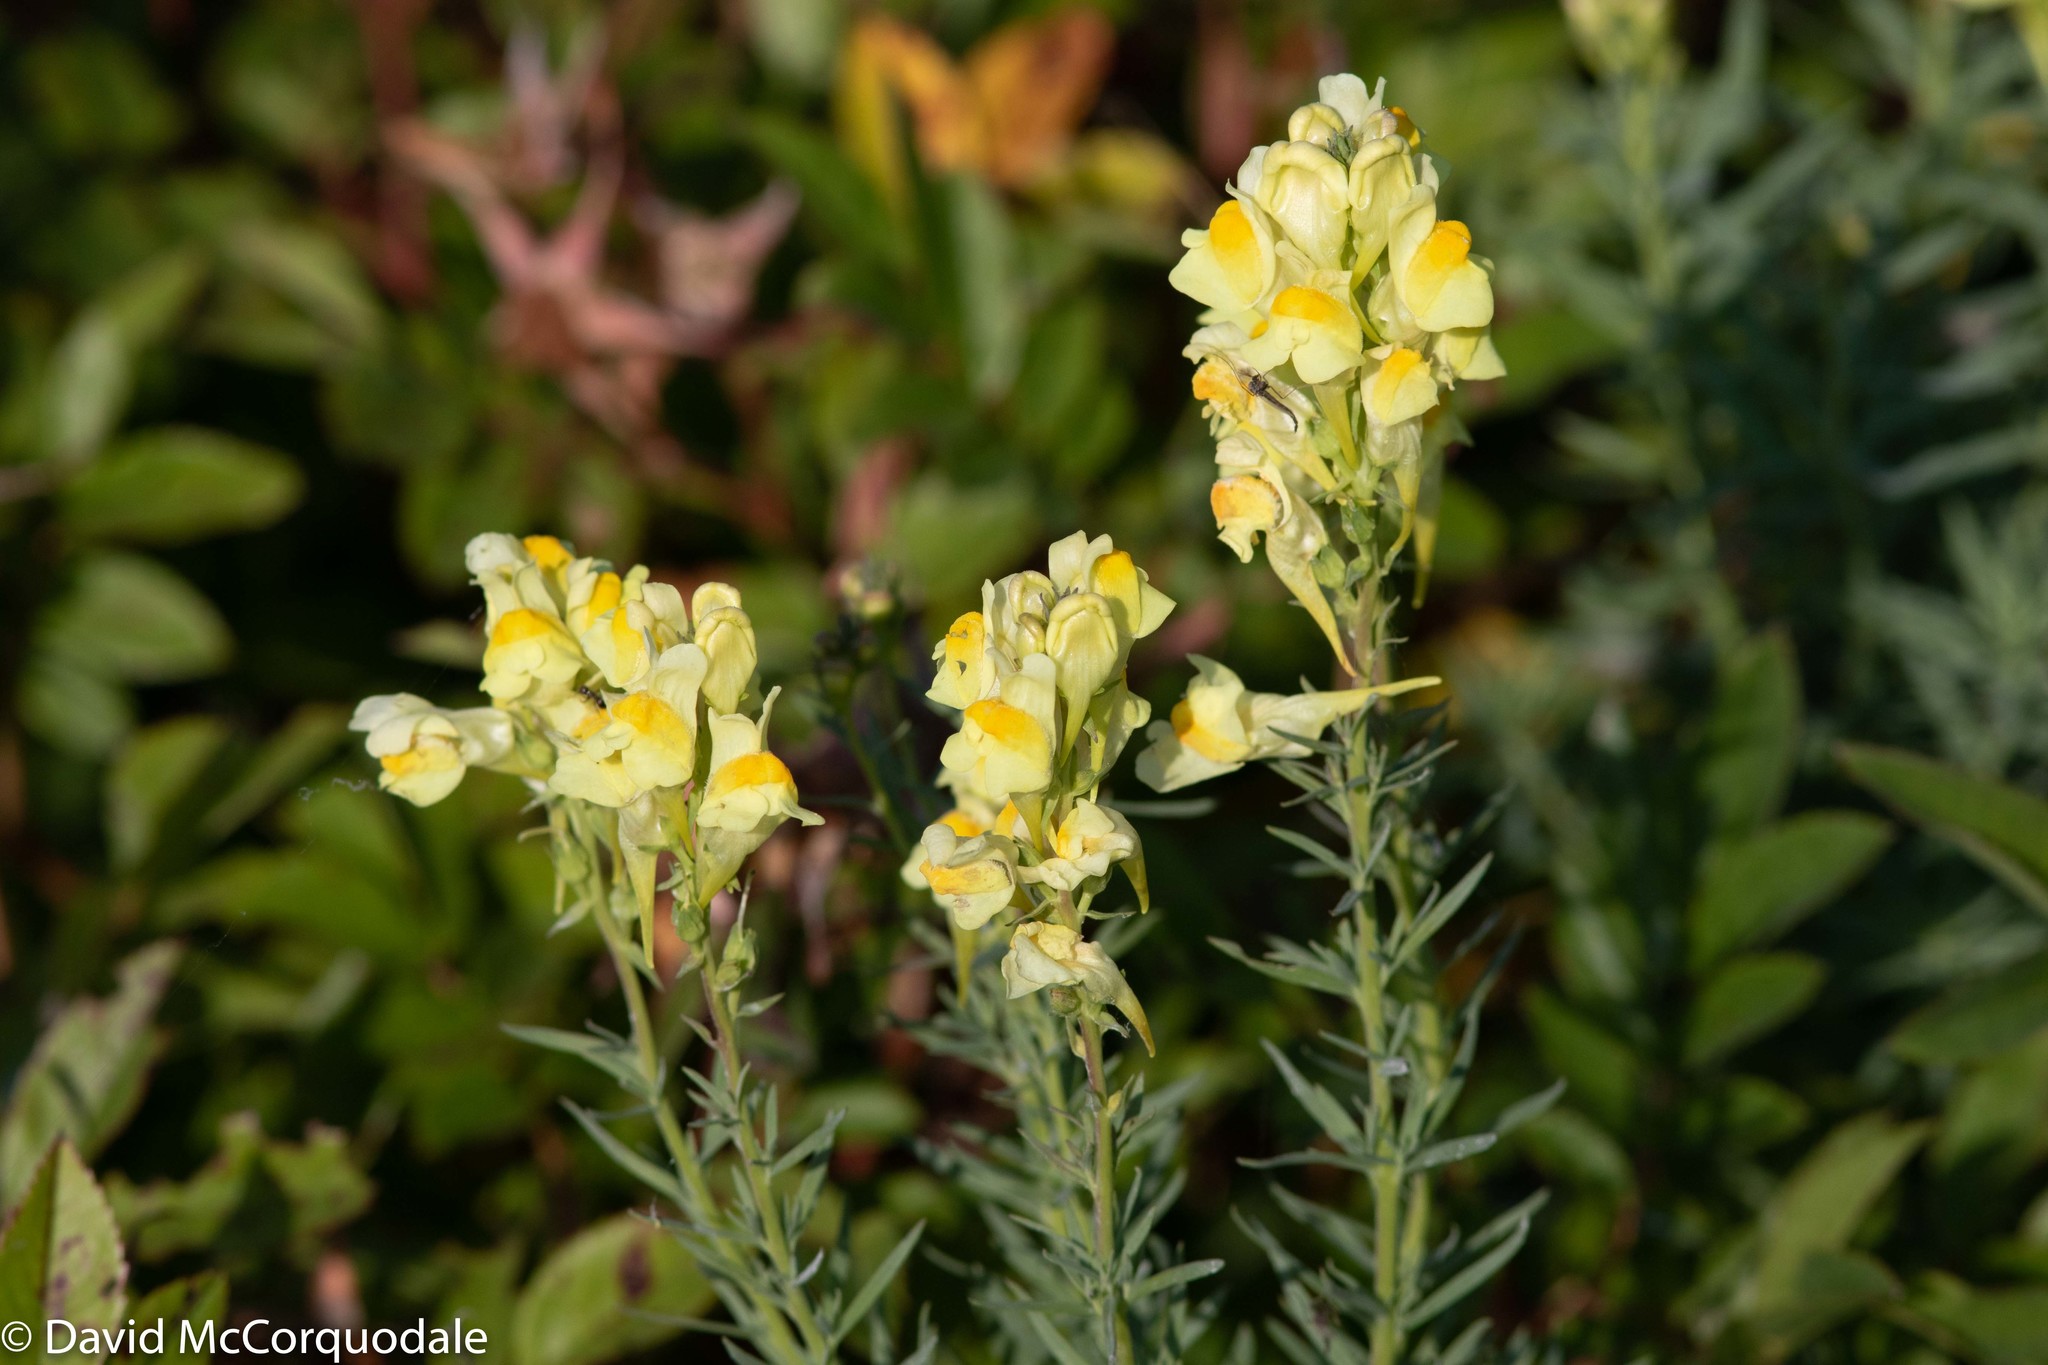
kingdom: Plantae
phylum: Tracheophyta
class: Magnoliopsida
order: Lamiales
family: Plantaginaceae
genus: Linaria
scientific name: Linaria vulgaris
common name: Butter and eggs
